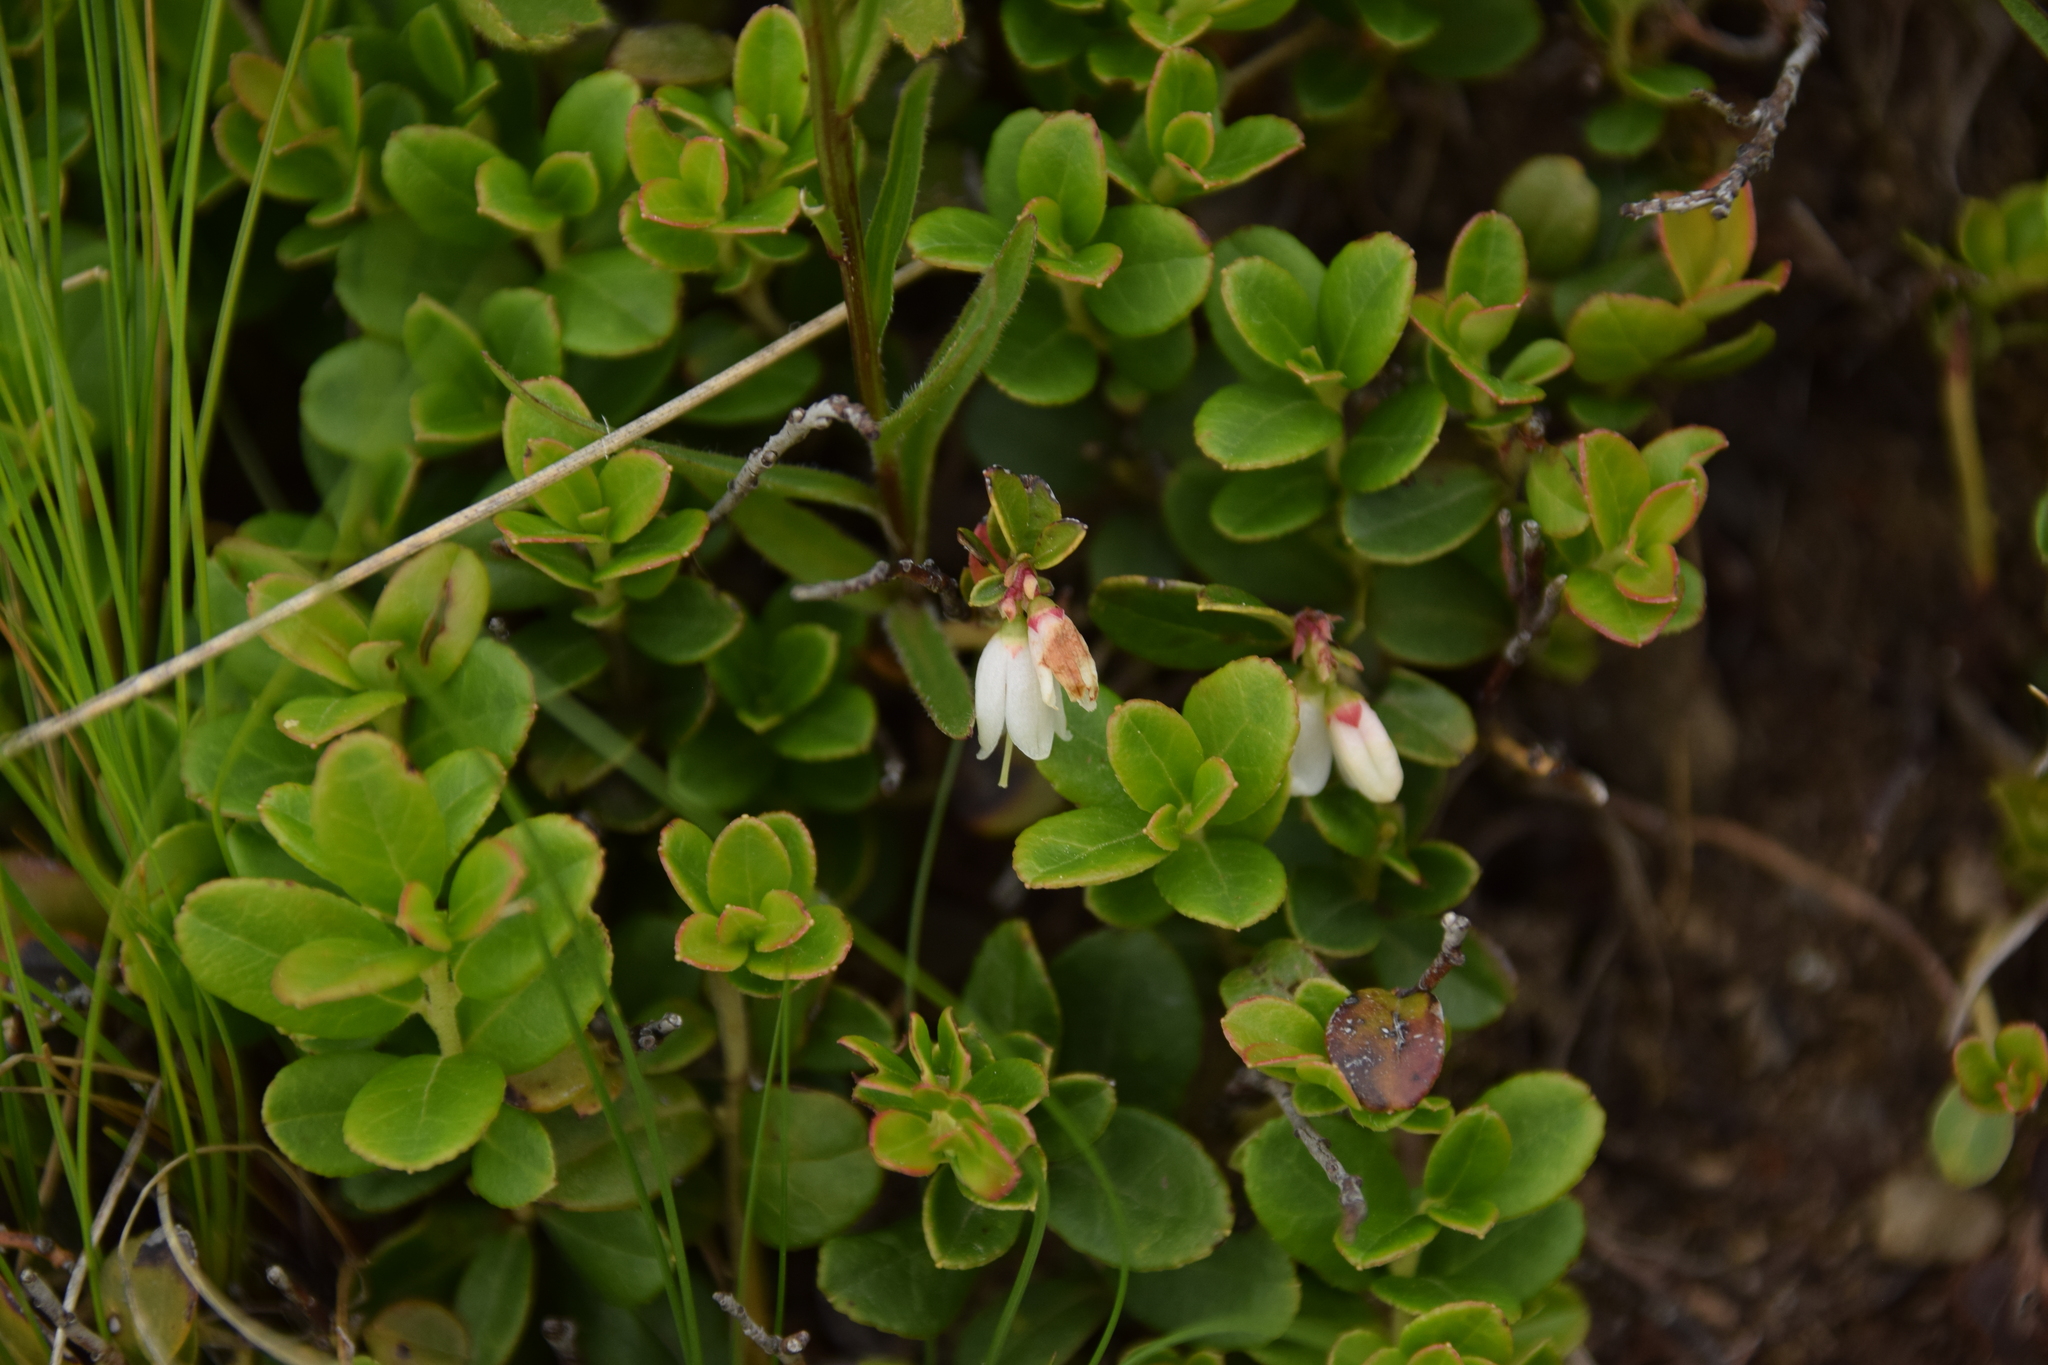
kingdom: Plantae
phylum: Tracheophyta
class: Magnoliopsida
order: Ericales
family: Ericaceae
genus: Vaccinium
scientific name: Vaccinium vitis-idaea
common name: Cowberry
